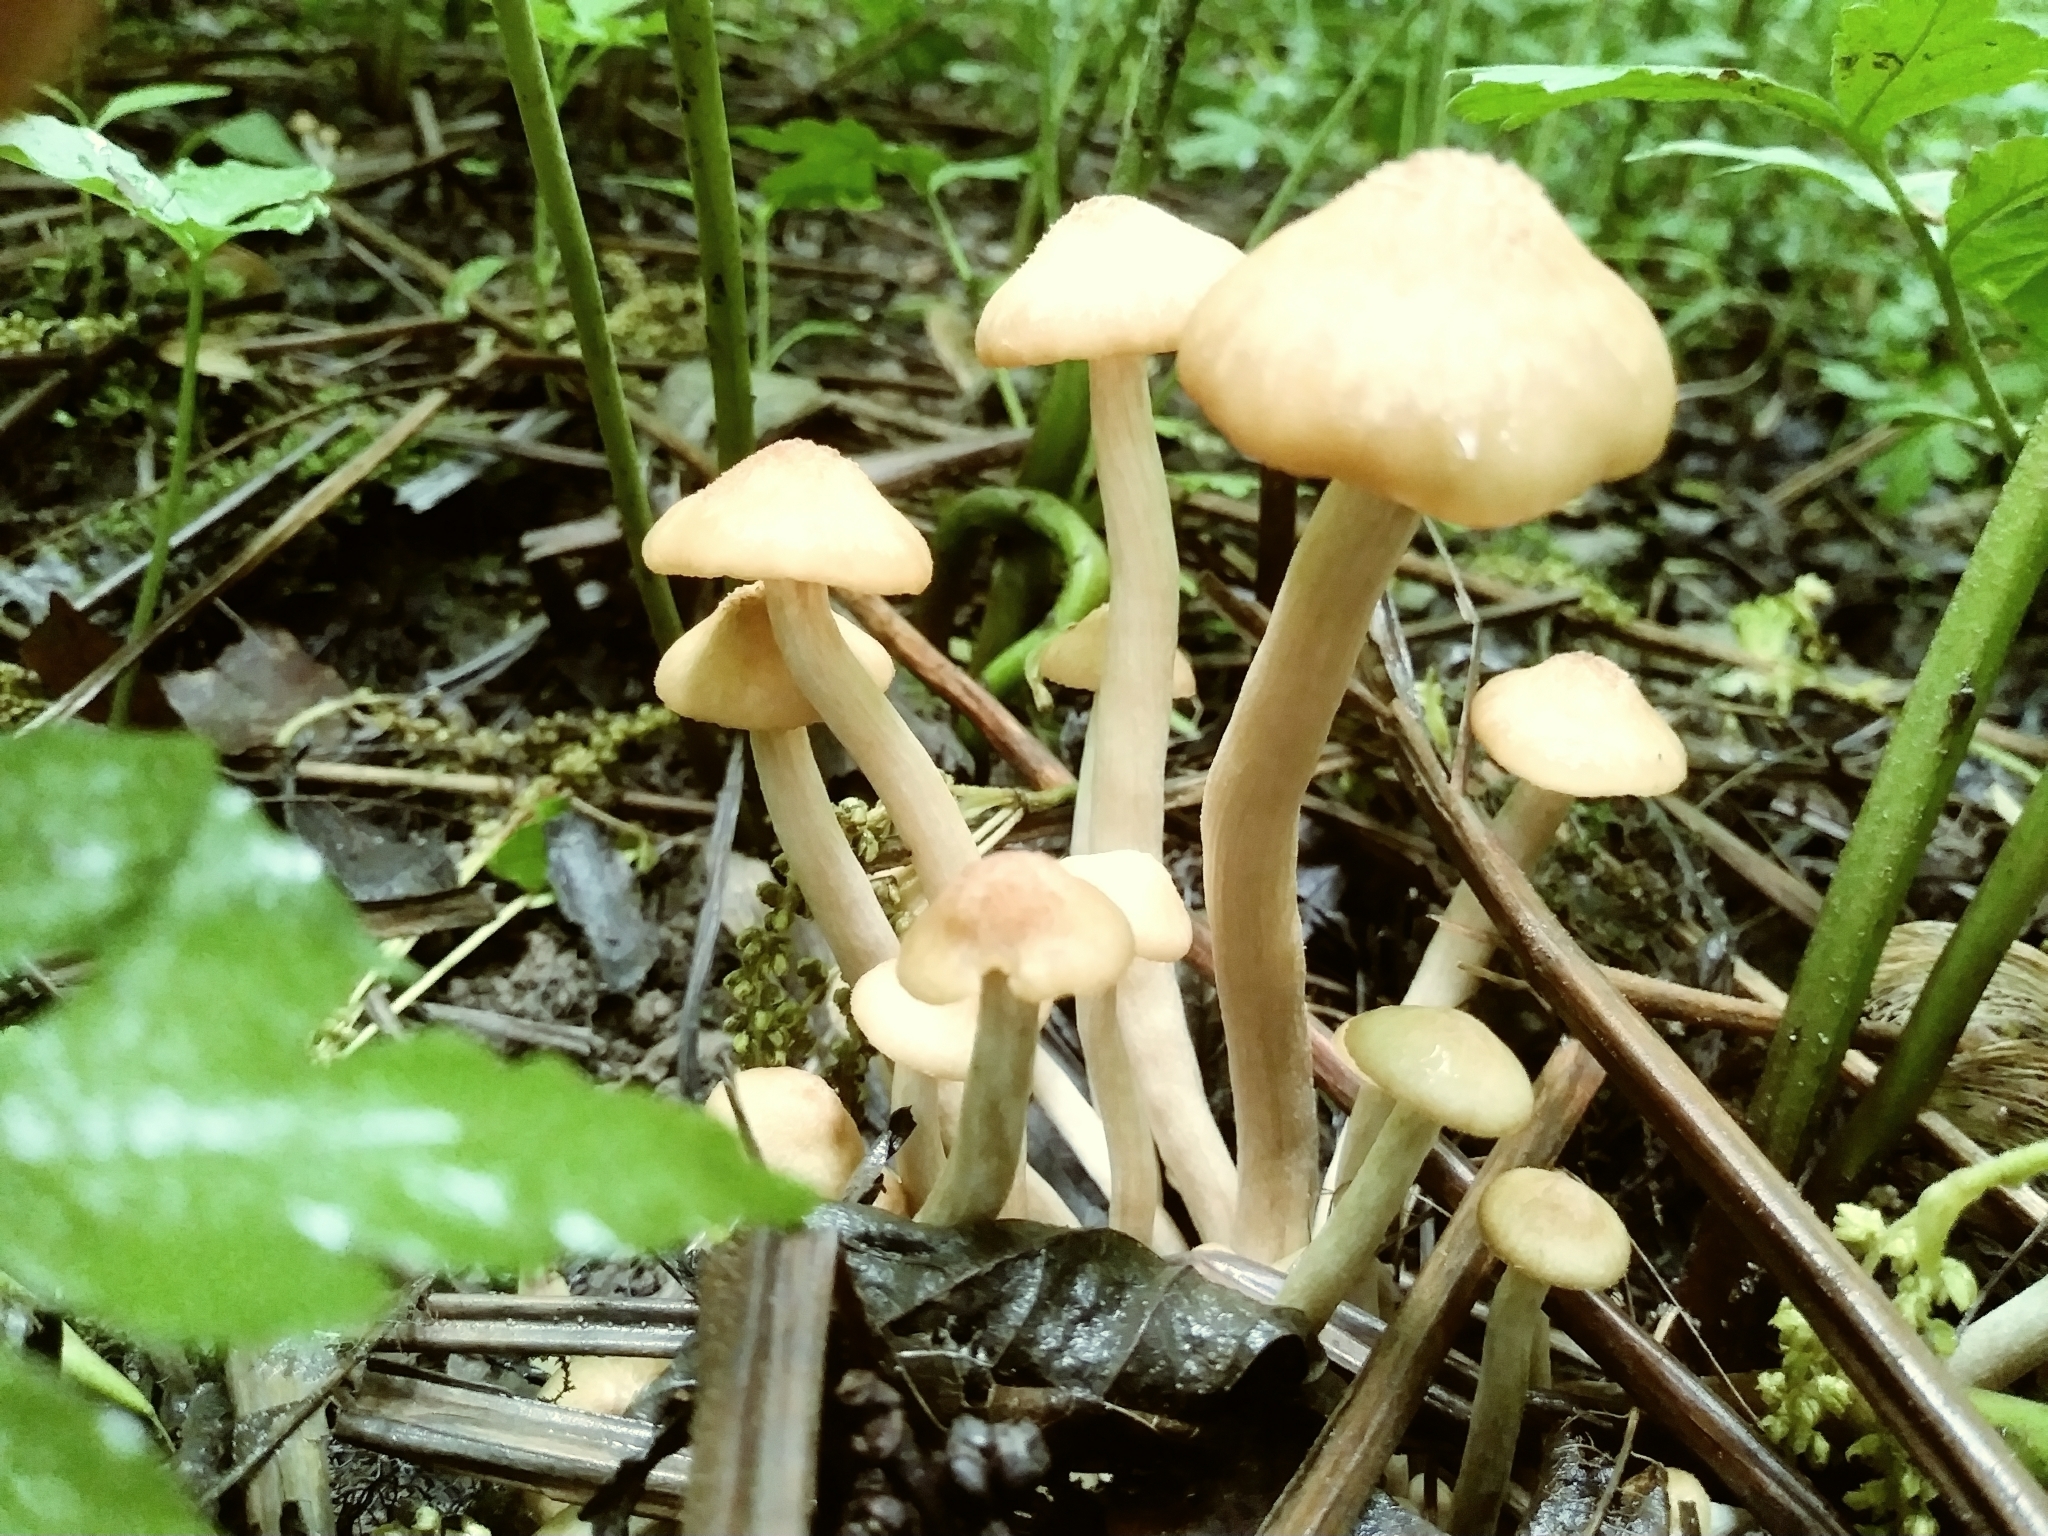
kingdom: Fungi
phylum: Basidiomycota
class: Agaricomycetes
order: Agaricales
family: Physalacriaceae
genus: Desarmillaria
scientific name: Desarmillaria caespitosa
